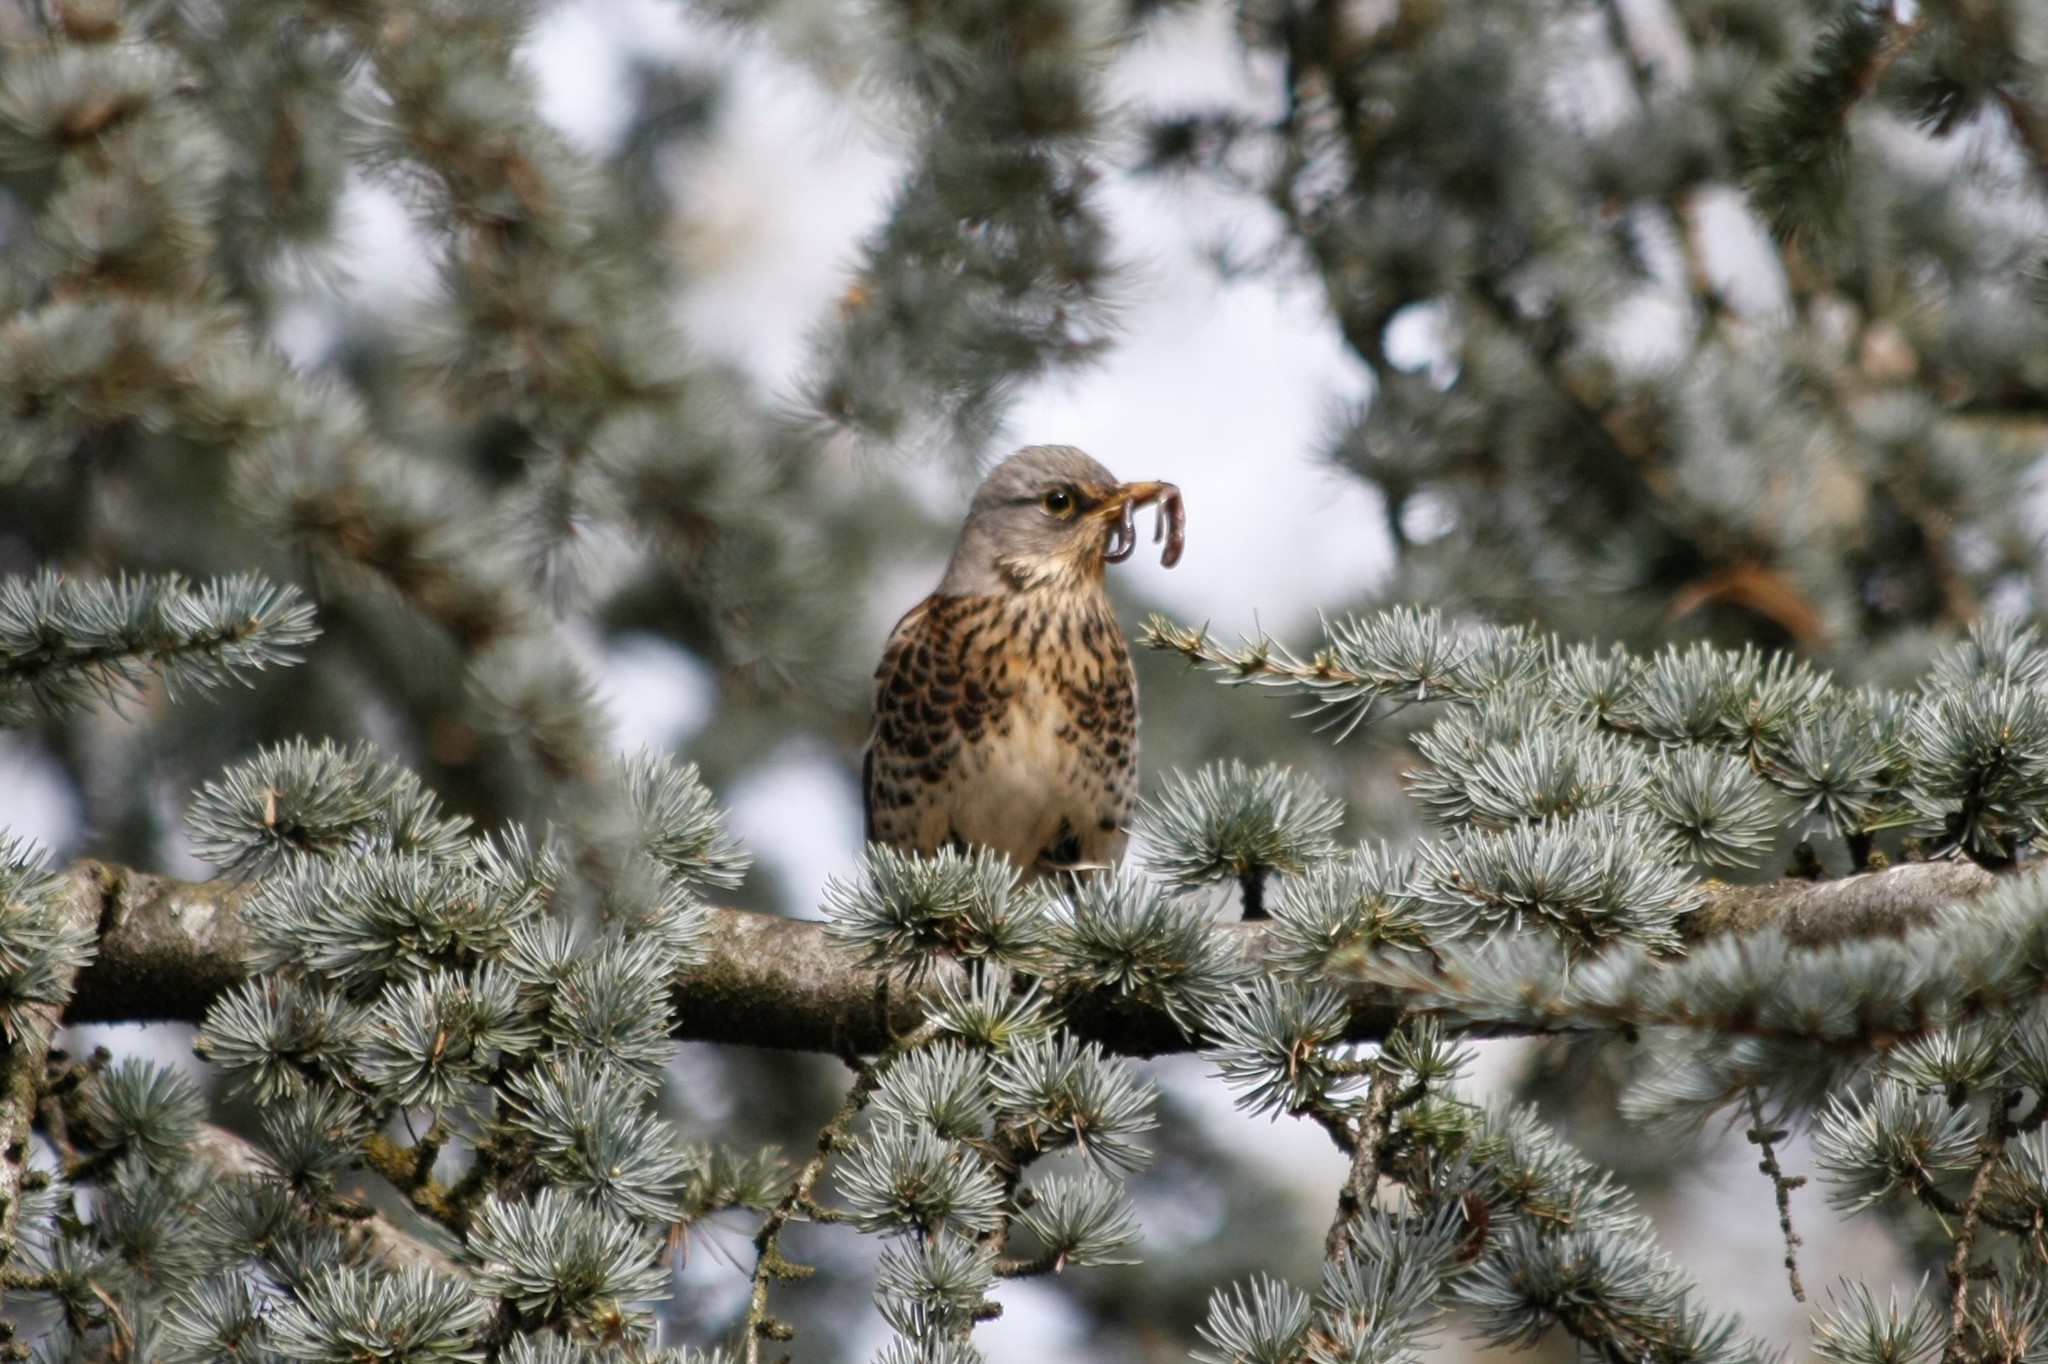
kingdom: Animalia
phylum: Chordata
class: Aves
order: Passeriformes
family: Turdidae
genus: Turdus
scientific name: Turdus pilaris
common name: Fieldfare
